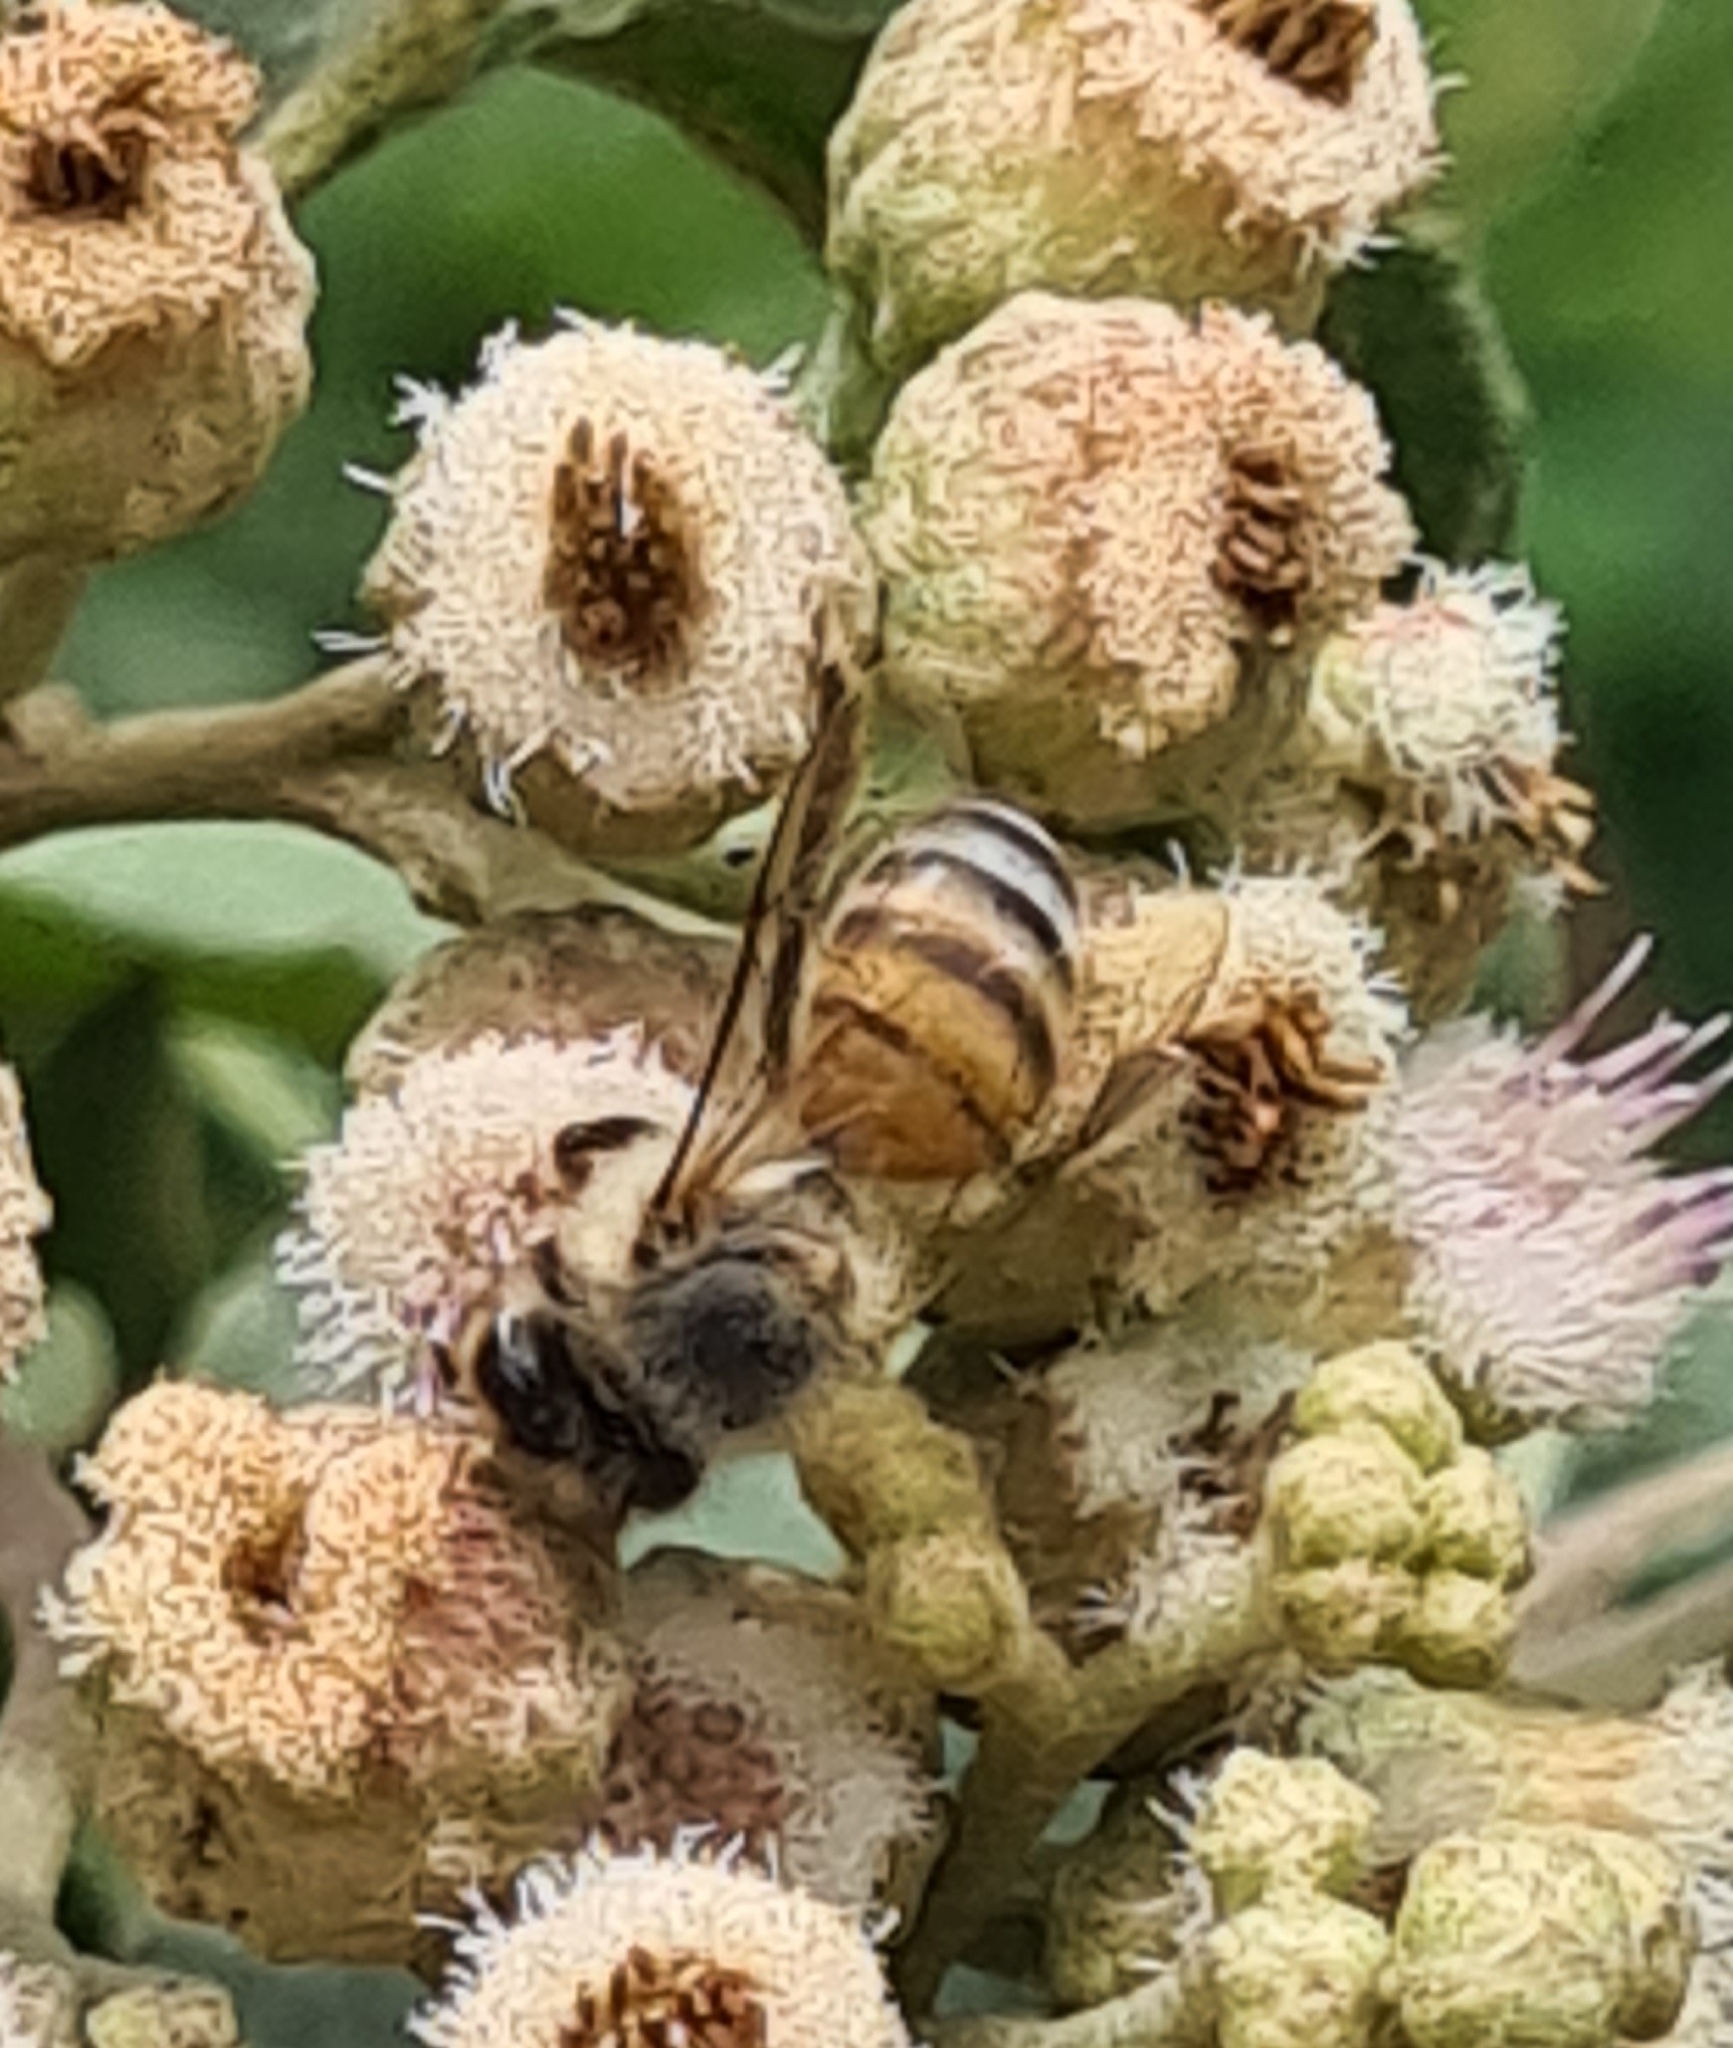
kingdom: Animalia
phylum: Arthropoda
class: Insecta
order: Hymenoptera
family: Apidae
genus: Apis
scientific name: Apis mellifera
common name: Honey bee
